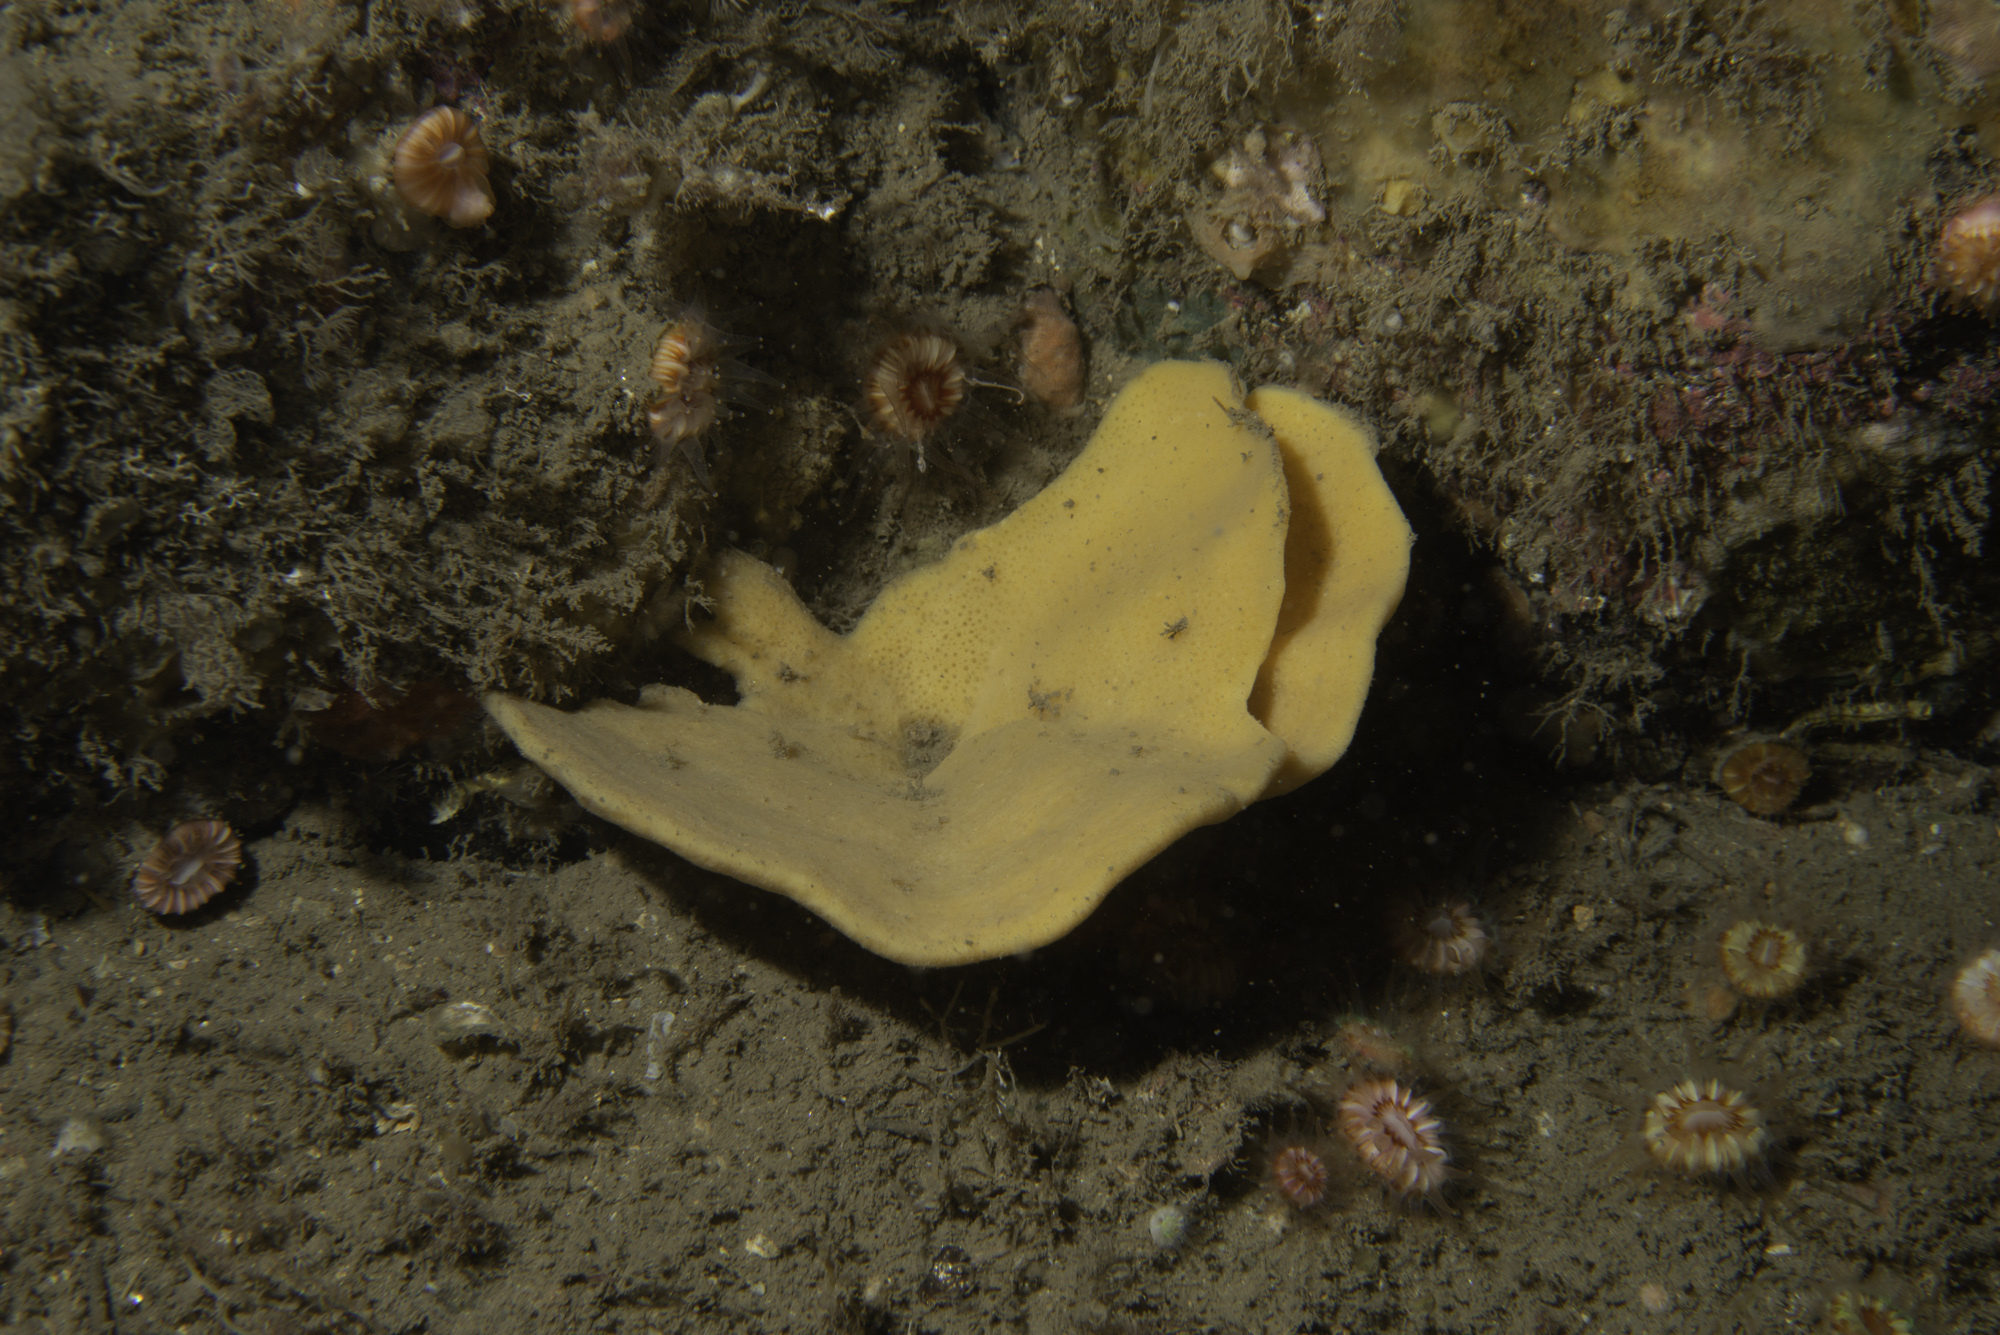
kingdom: Animalia
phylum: Porifera
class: Demospongiae
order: Axinellida
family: Axinellidae
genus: Axinella
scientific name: Axinella infundibuliformis
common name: North atlantic cup sponge
